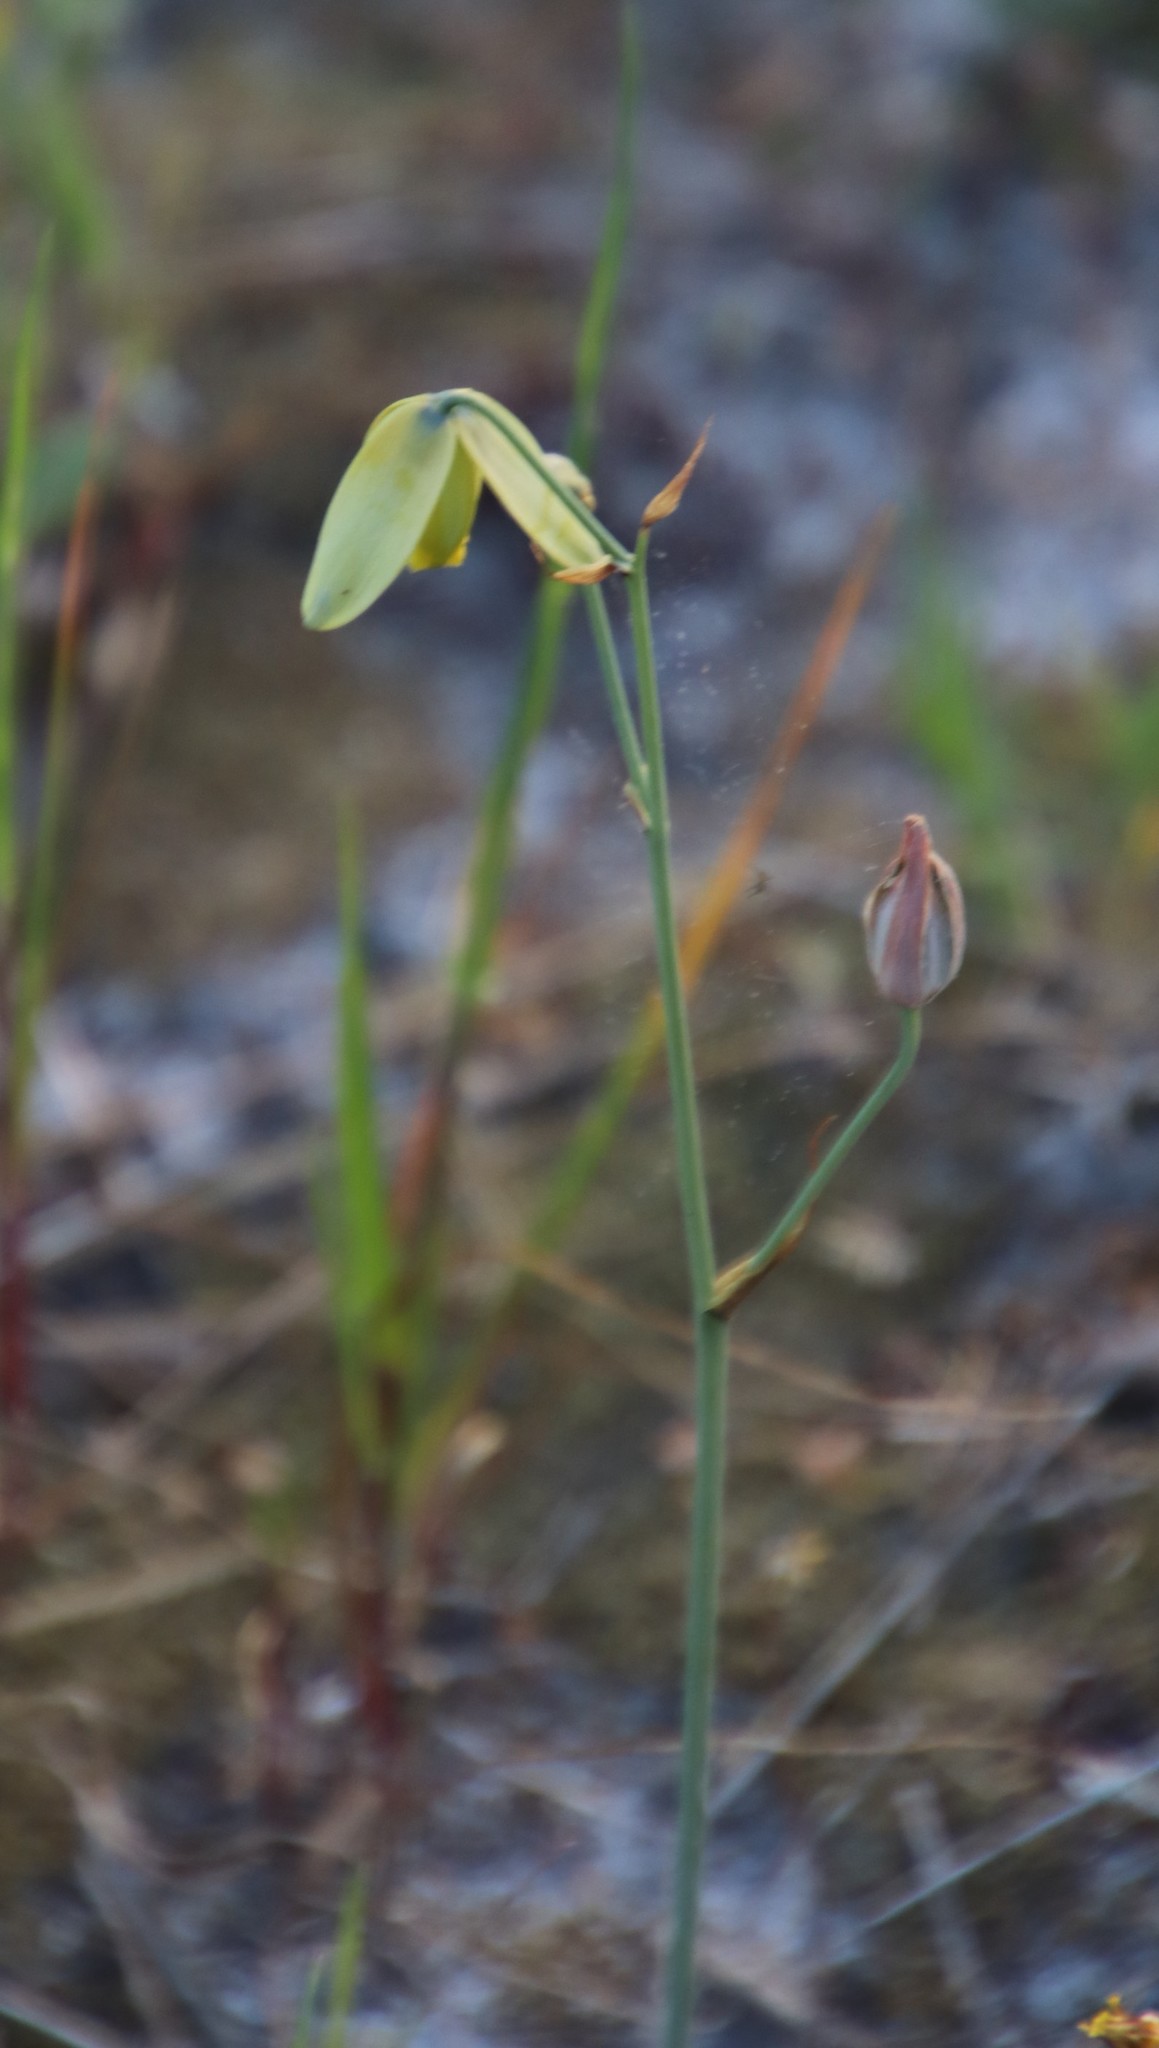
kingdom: Plantae
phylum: Tracheophyta
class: Liliopsida
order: Asparagales
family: Asparagaceae
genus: Albuca
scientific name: Albuca juncifolia
